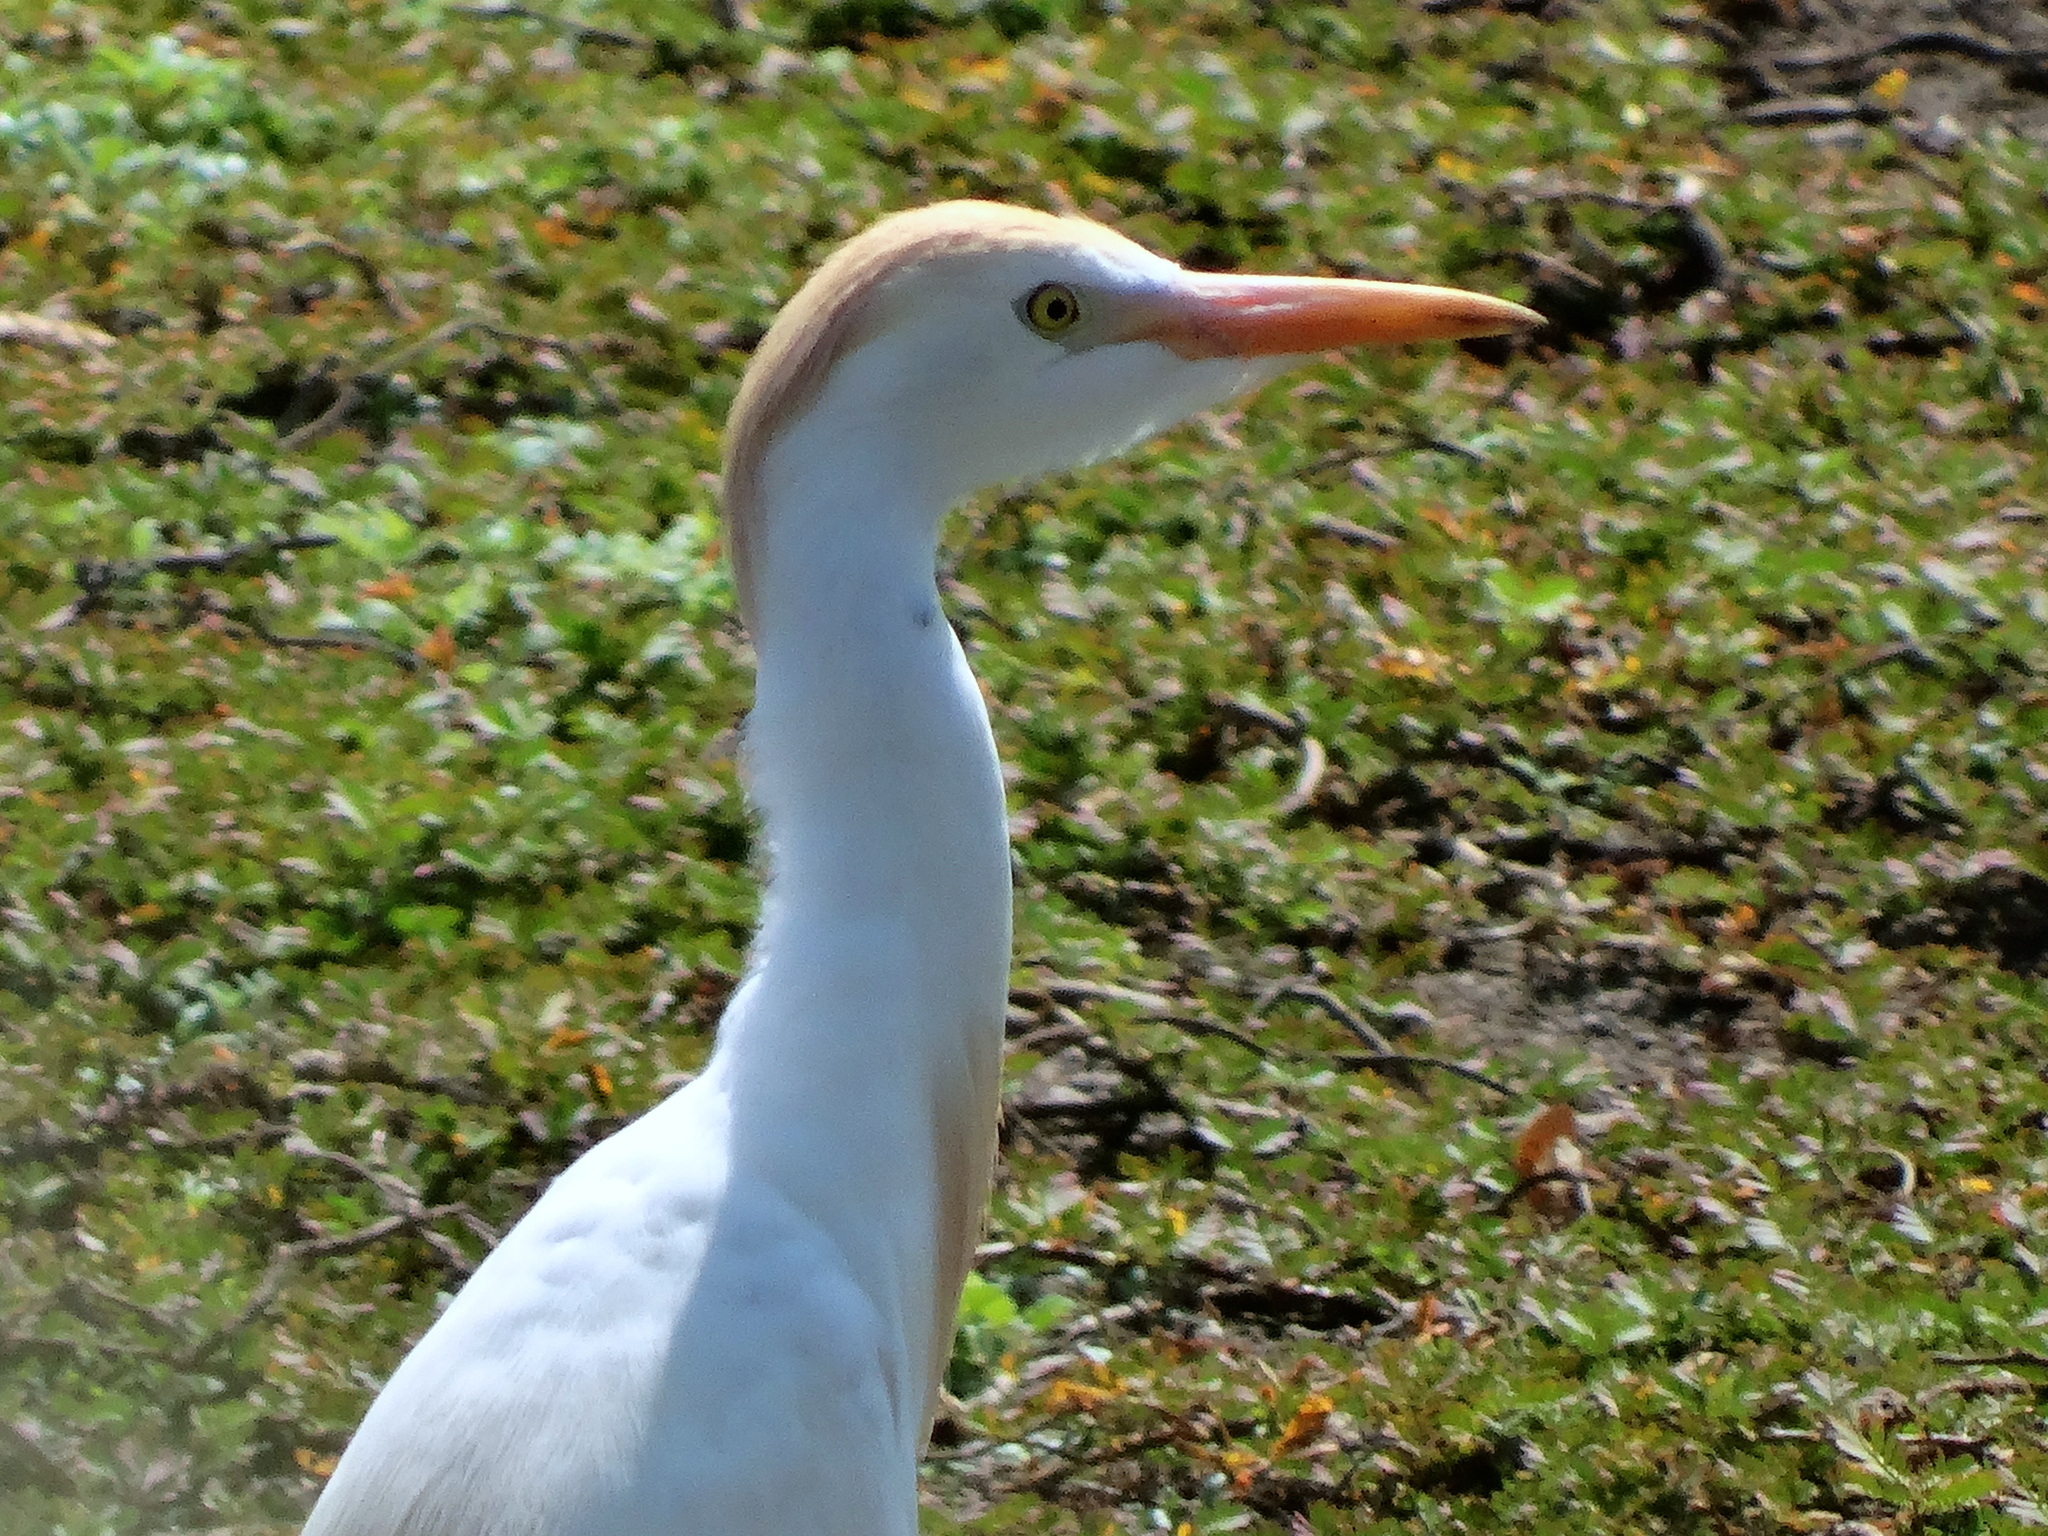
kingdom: Animalia
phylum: Chordata
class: Aves
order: Pelecaniformes
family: Ardeidae
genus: Bubulcus
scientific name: Bubulcus ibis
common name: Cattle egret
